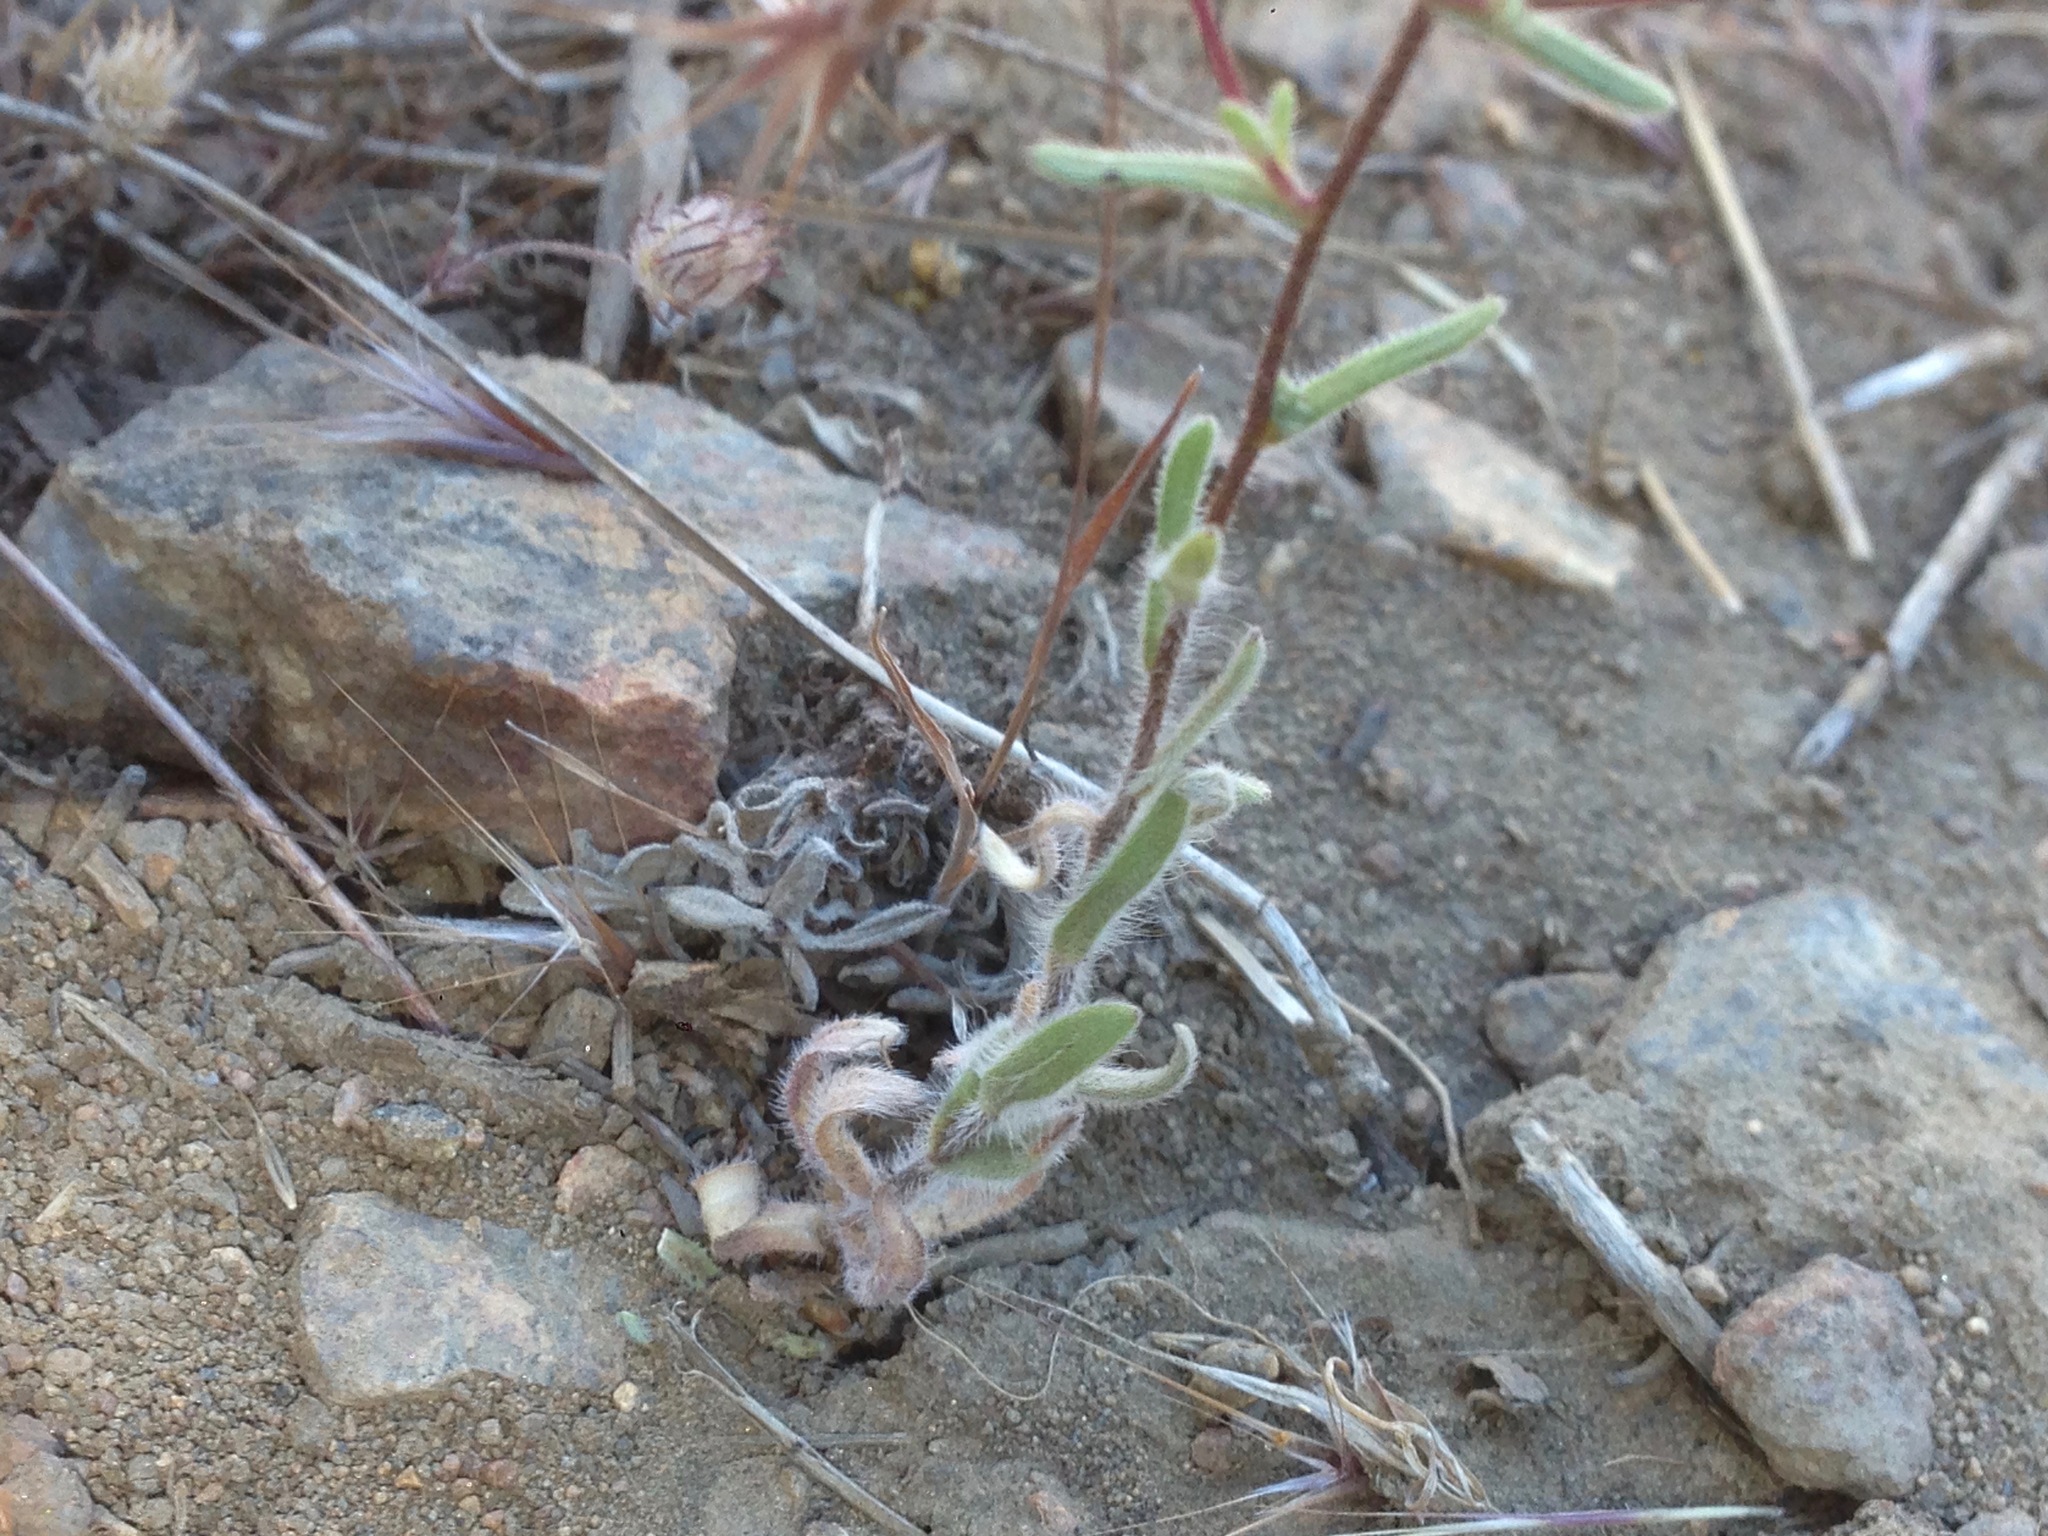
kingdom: Plantae
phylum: Tracheophyta
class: Magnoliopsida
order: Asterales
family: Asteraceae
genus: Madia
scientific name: Madia elegans
